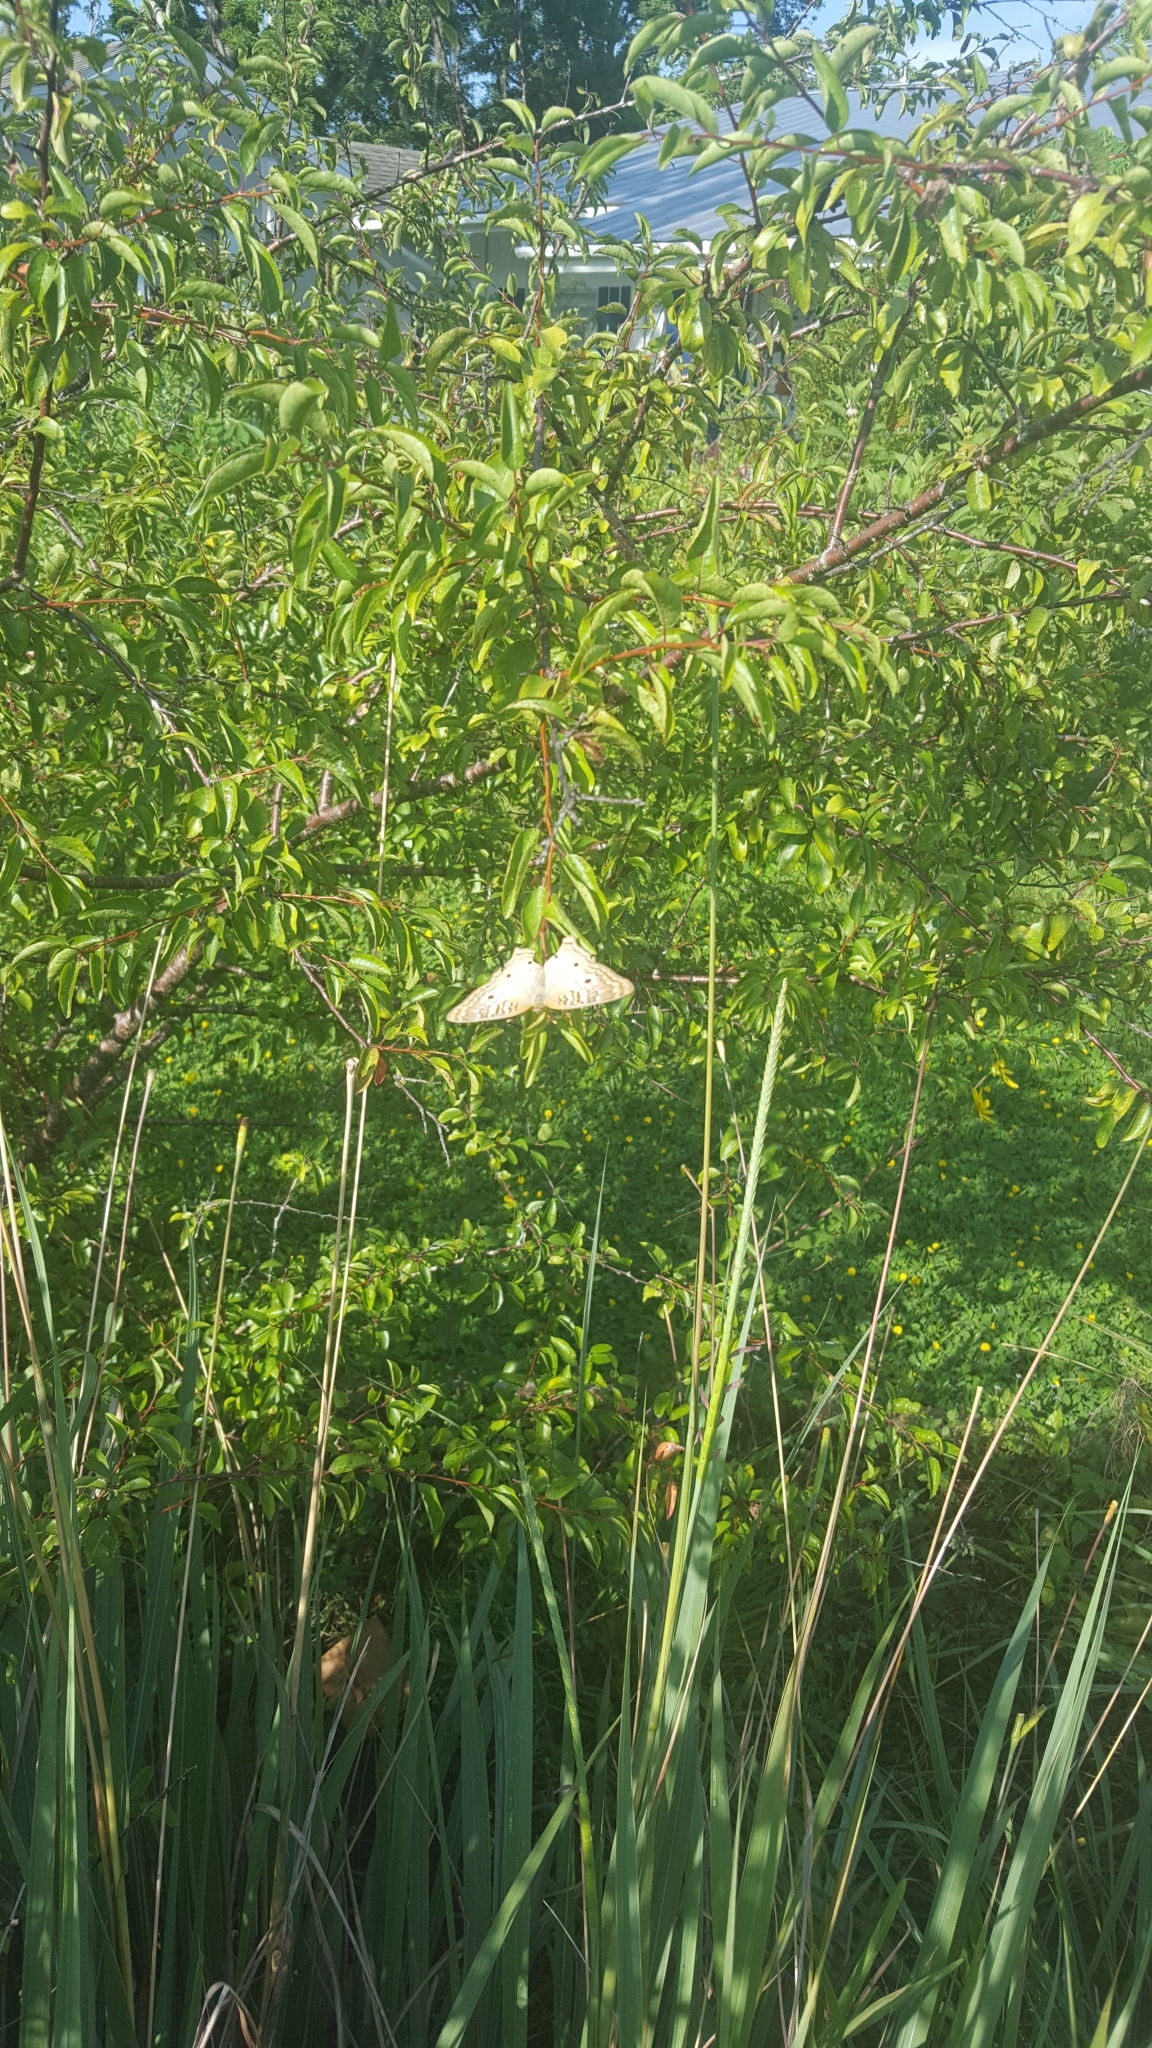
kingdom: Animalia
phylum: Arthropoda
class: Insecta
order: Lepidoptera
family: Nymphalidae
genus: Anartia
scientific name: Anartia jatrophae
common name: White peacock
